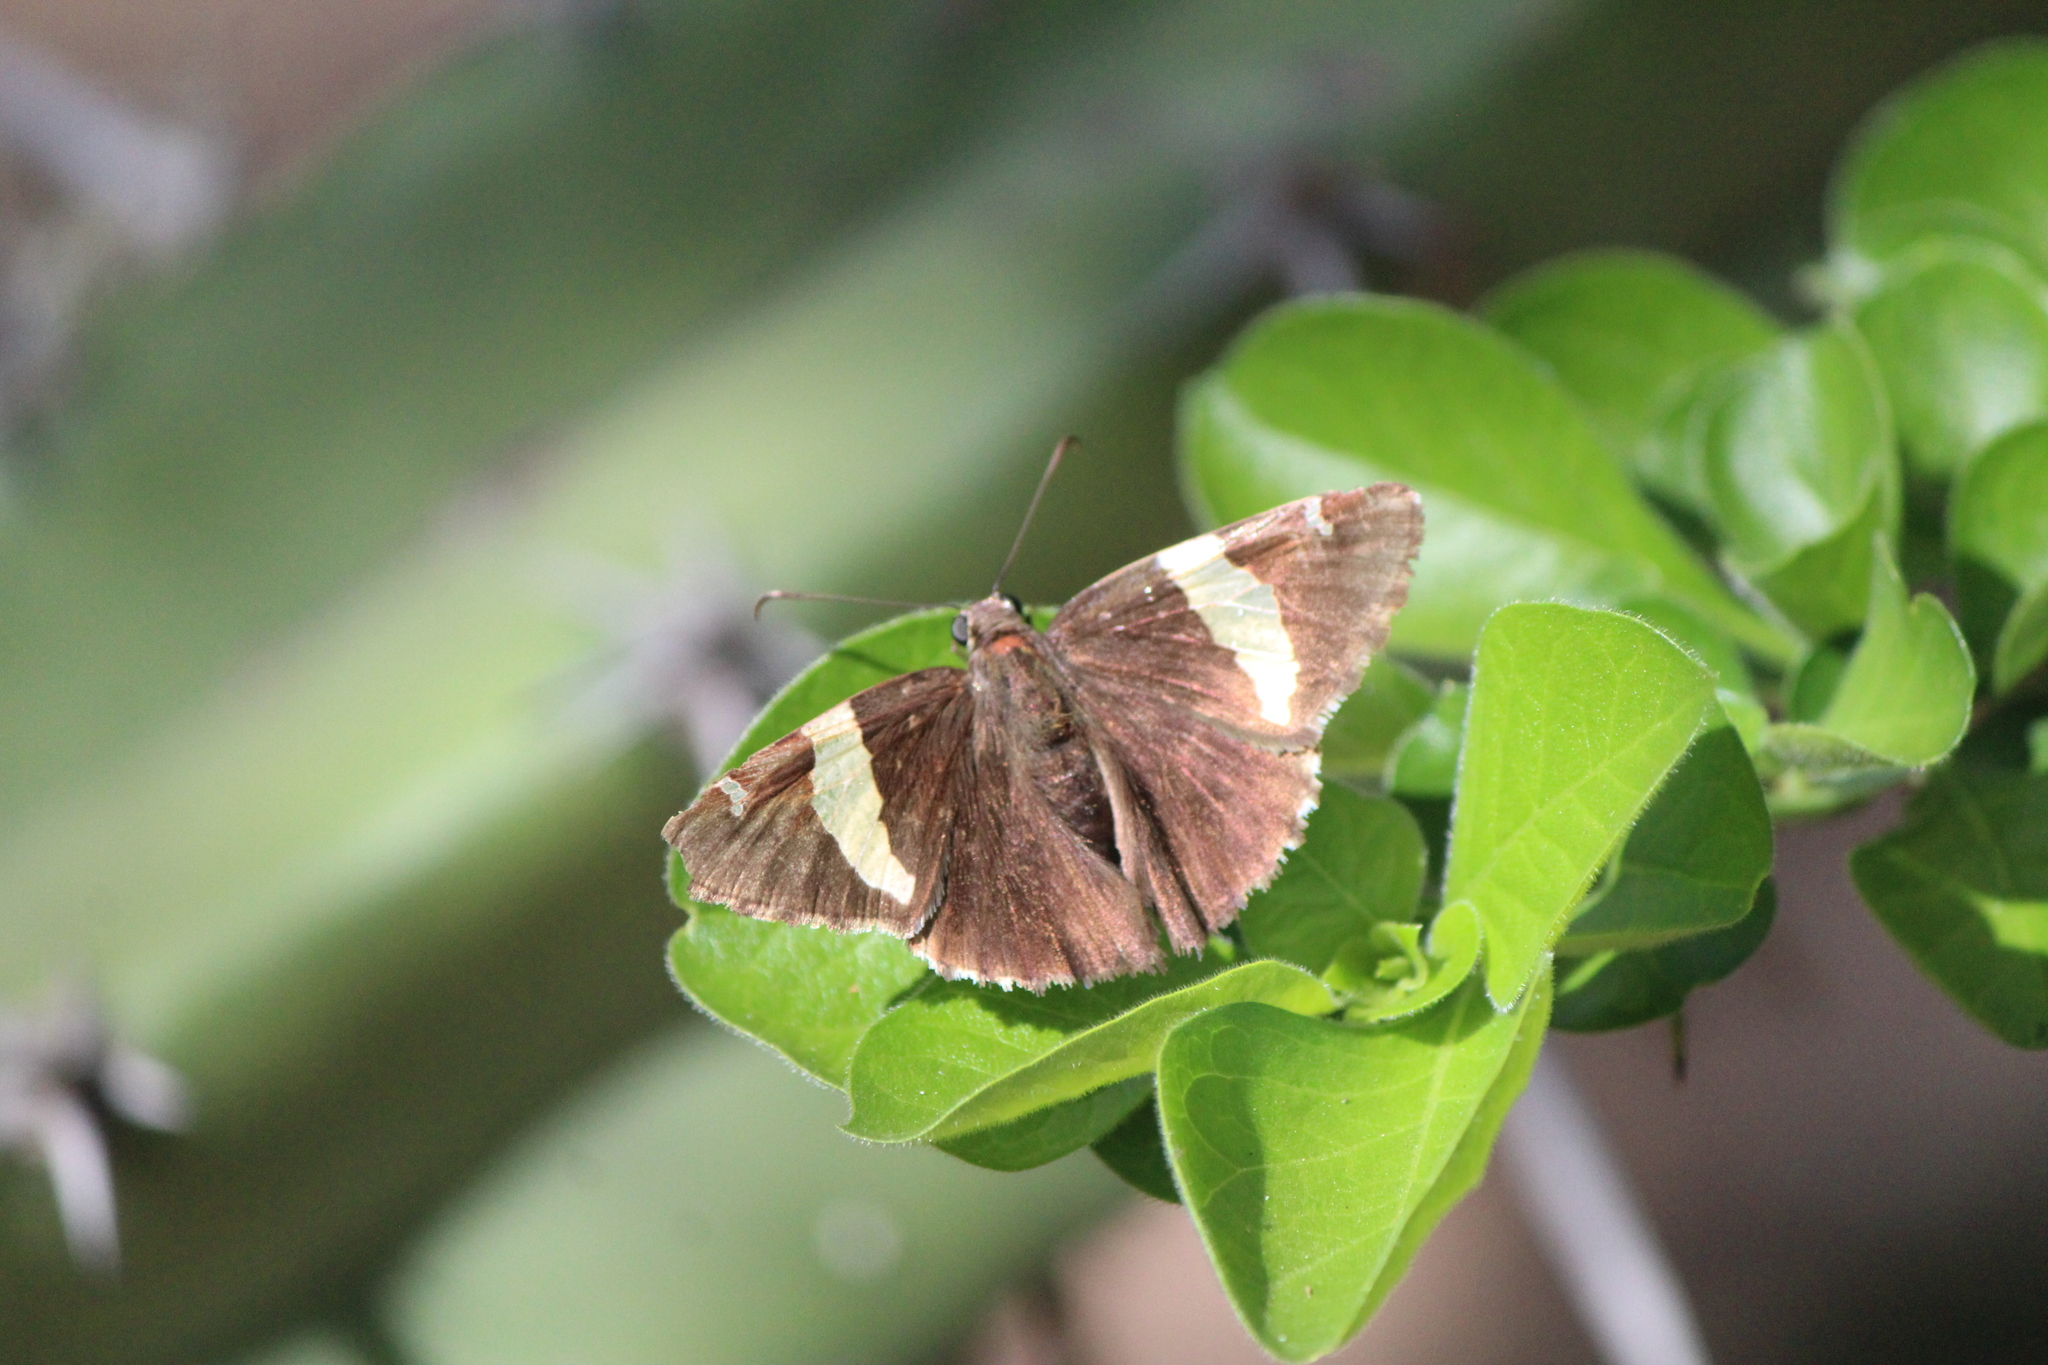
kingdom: Animalia
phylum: Arthropoda
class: Arachnida
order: Scorpiones
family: Bothriuridae
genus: Telegonus
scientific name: Telegonus cellus
